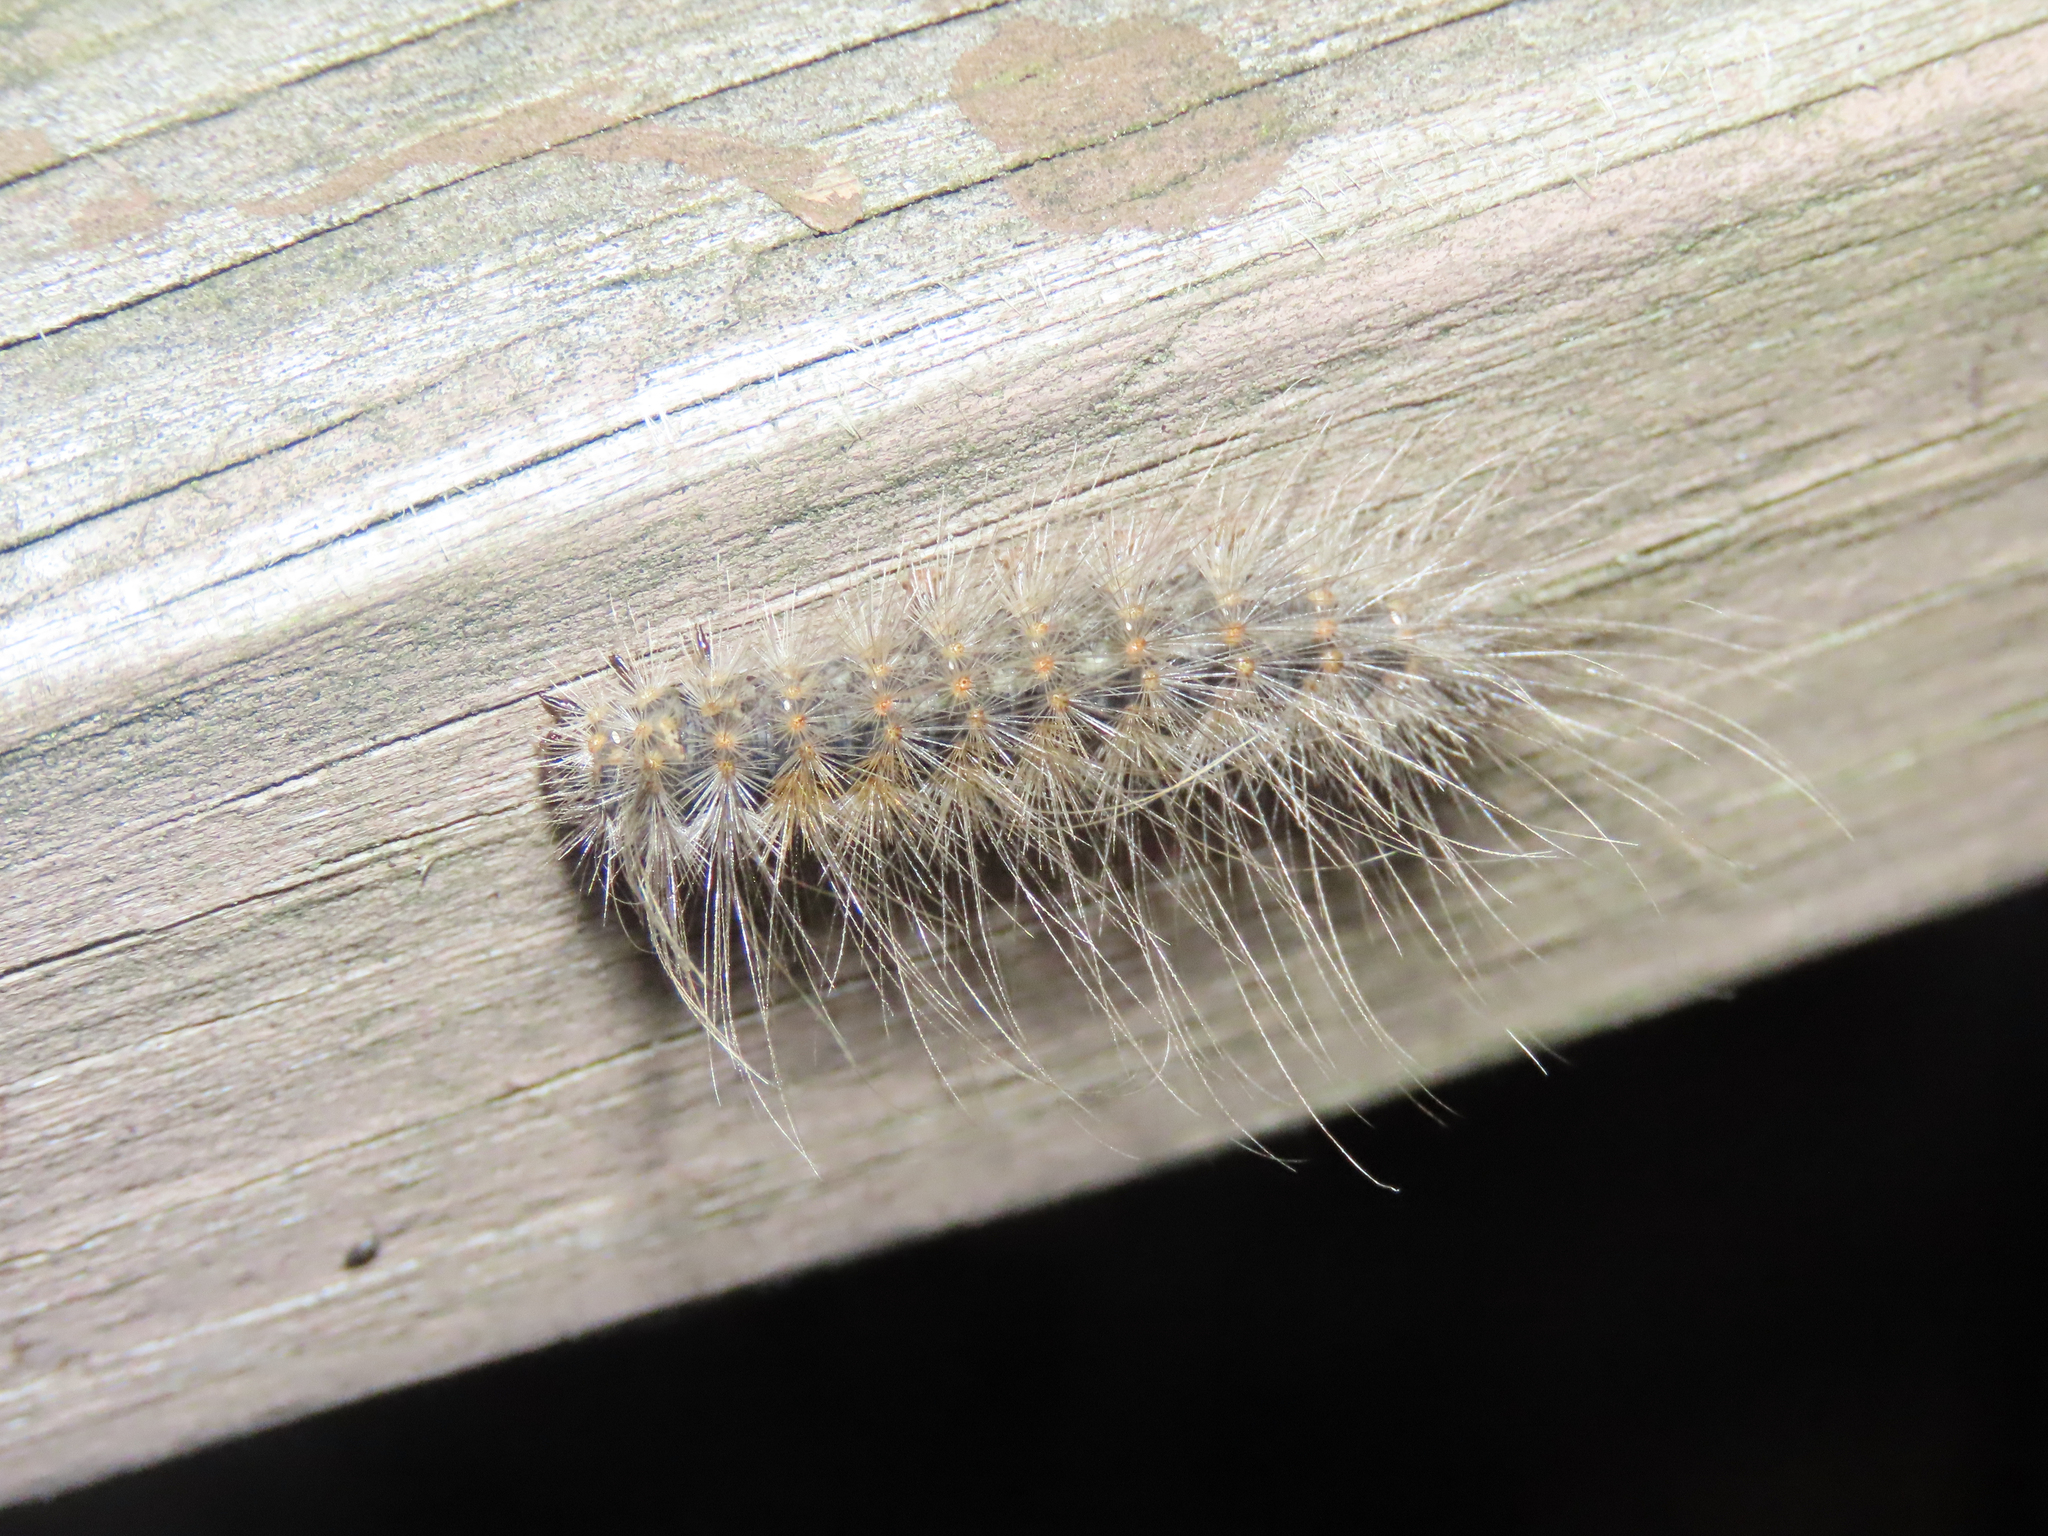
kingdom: Animalia
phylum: Arthropoda
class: Insecta
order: Lepidoptera
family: Erebidae
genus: Hyphantria
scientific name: Hyphantria cunea
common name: American white moth
